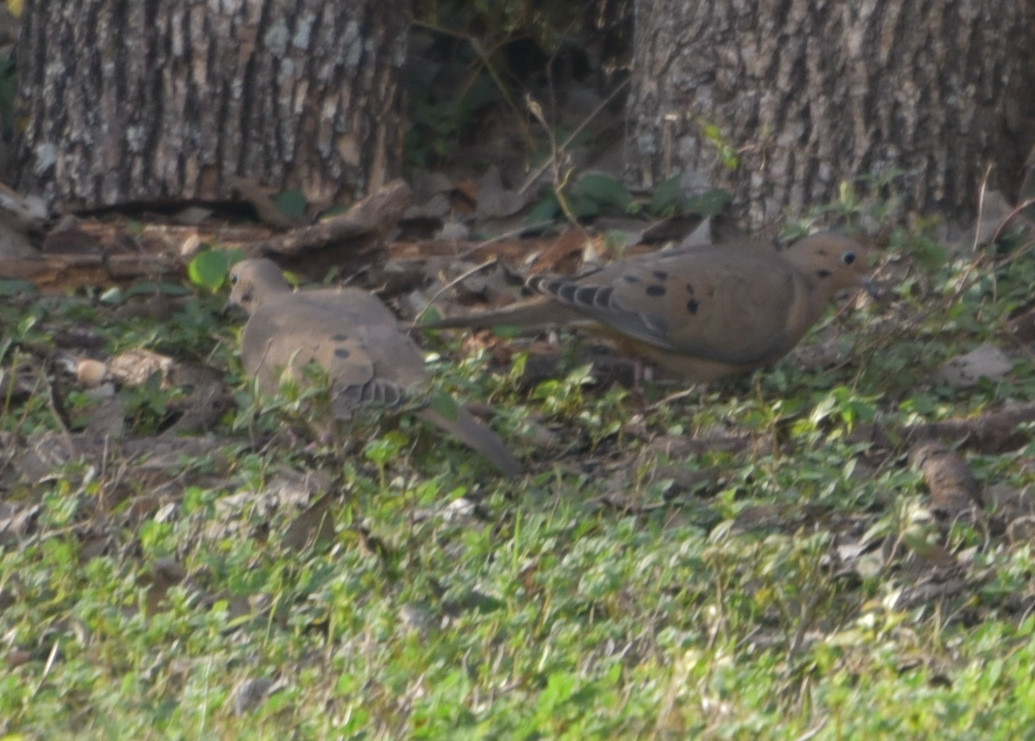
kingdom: Animalia
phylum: Chordata
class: Aves
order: Columbiformes
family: Columbidae
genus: Zenaida
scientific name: Zenaida macroura
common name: Mourning dove
